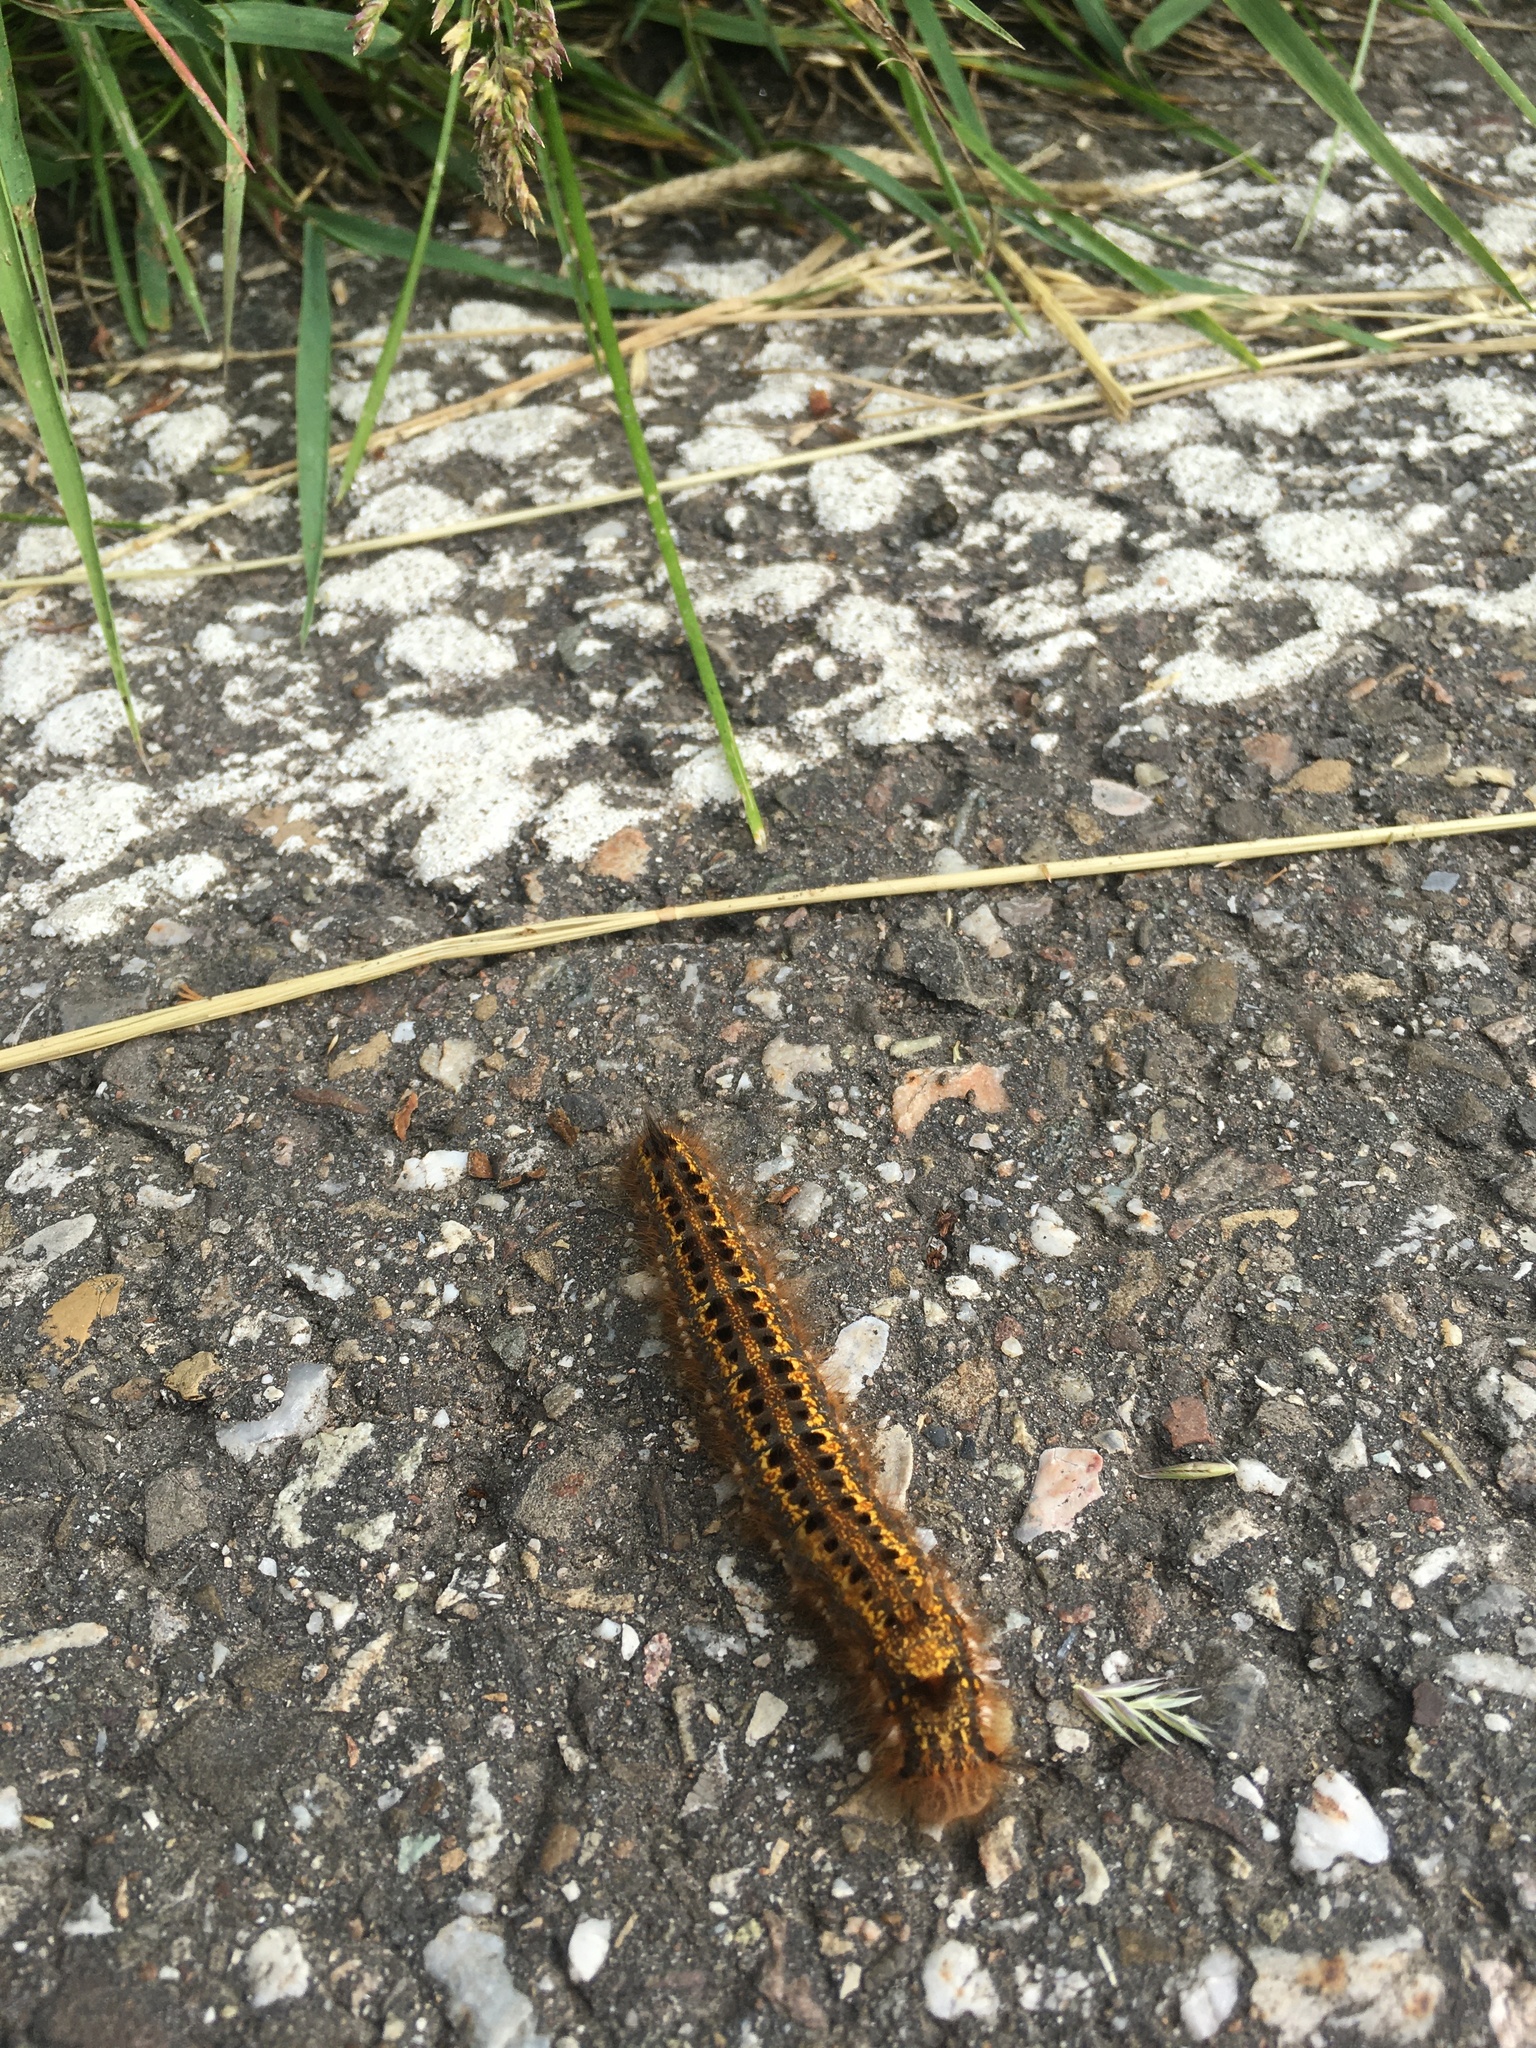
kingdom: Animalia
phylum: Arthropoda
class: Insecta
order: Lepidoptera
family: Lasiocampidae
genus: Euthrix
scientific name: Euthrix potatoria
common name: Drinker
